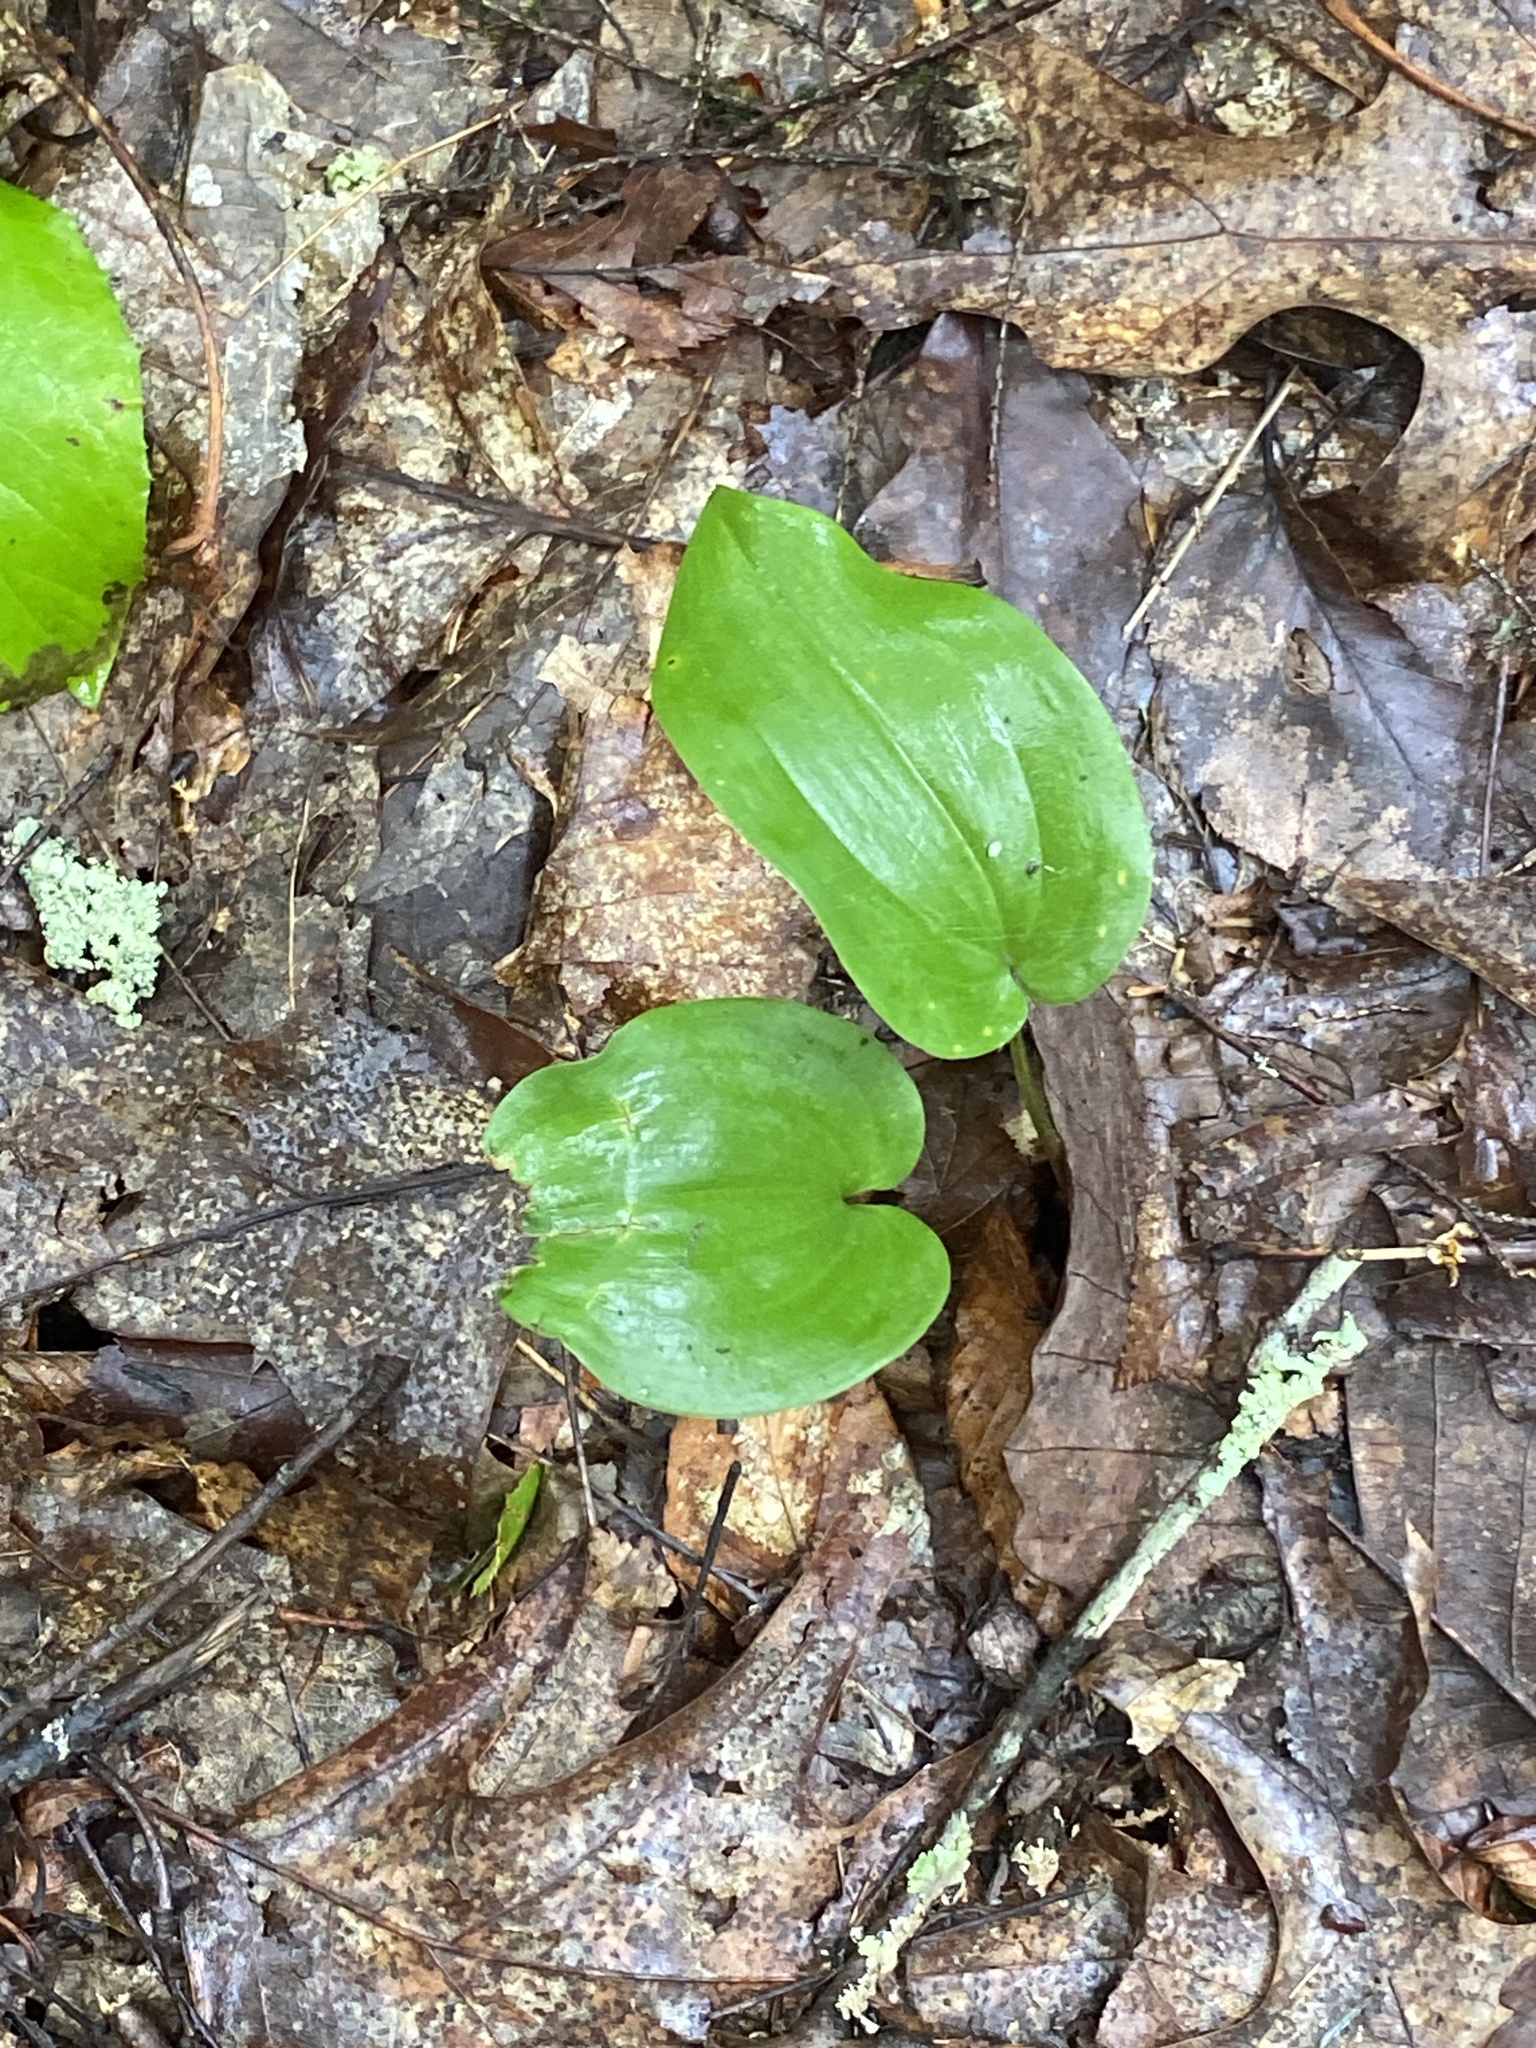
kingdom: Plantae
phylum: Tracheophyta
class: Liliopsida
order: Asparagales
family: Asparagaceae
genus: Maianthemum
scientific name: Maianthemum canadense
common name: False lily-of-the-valley
